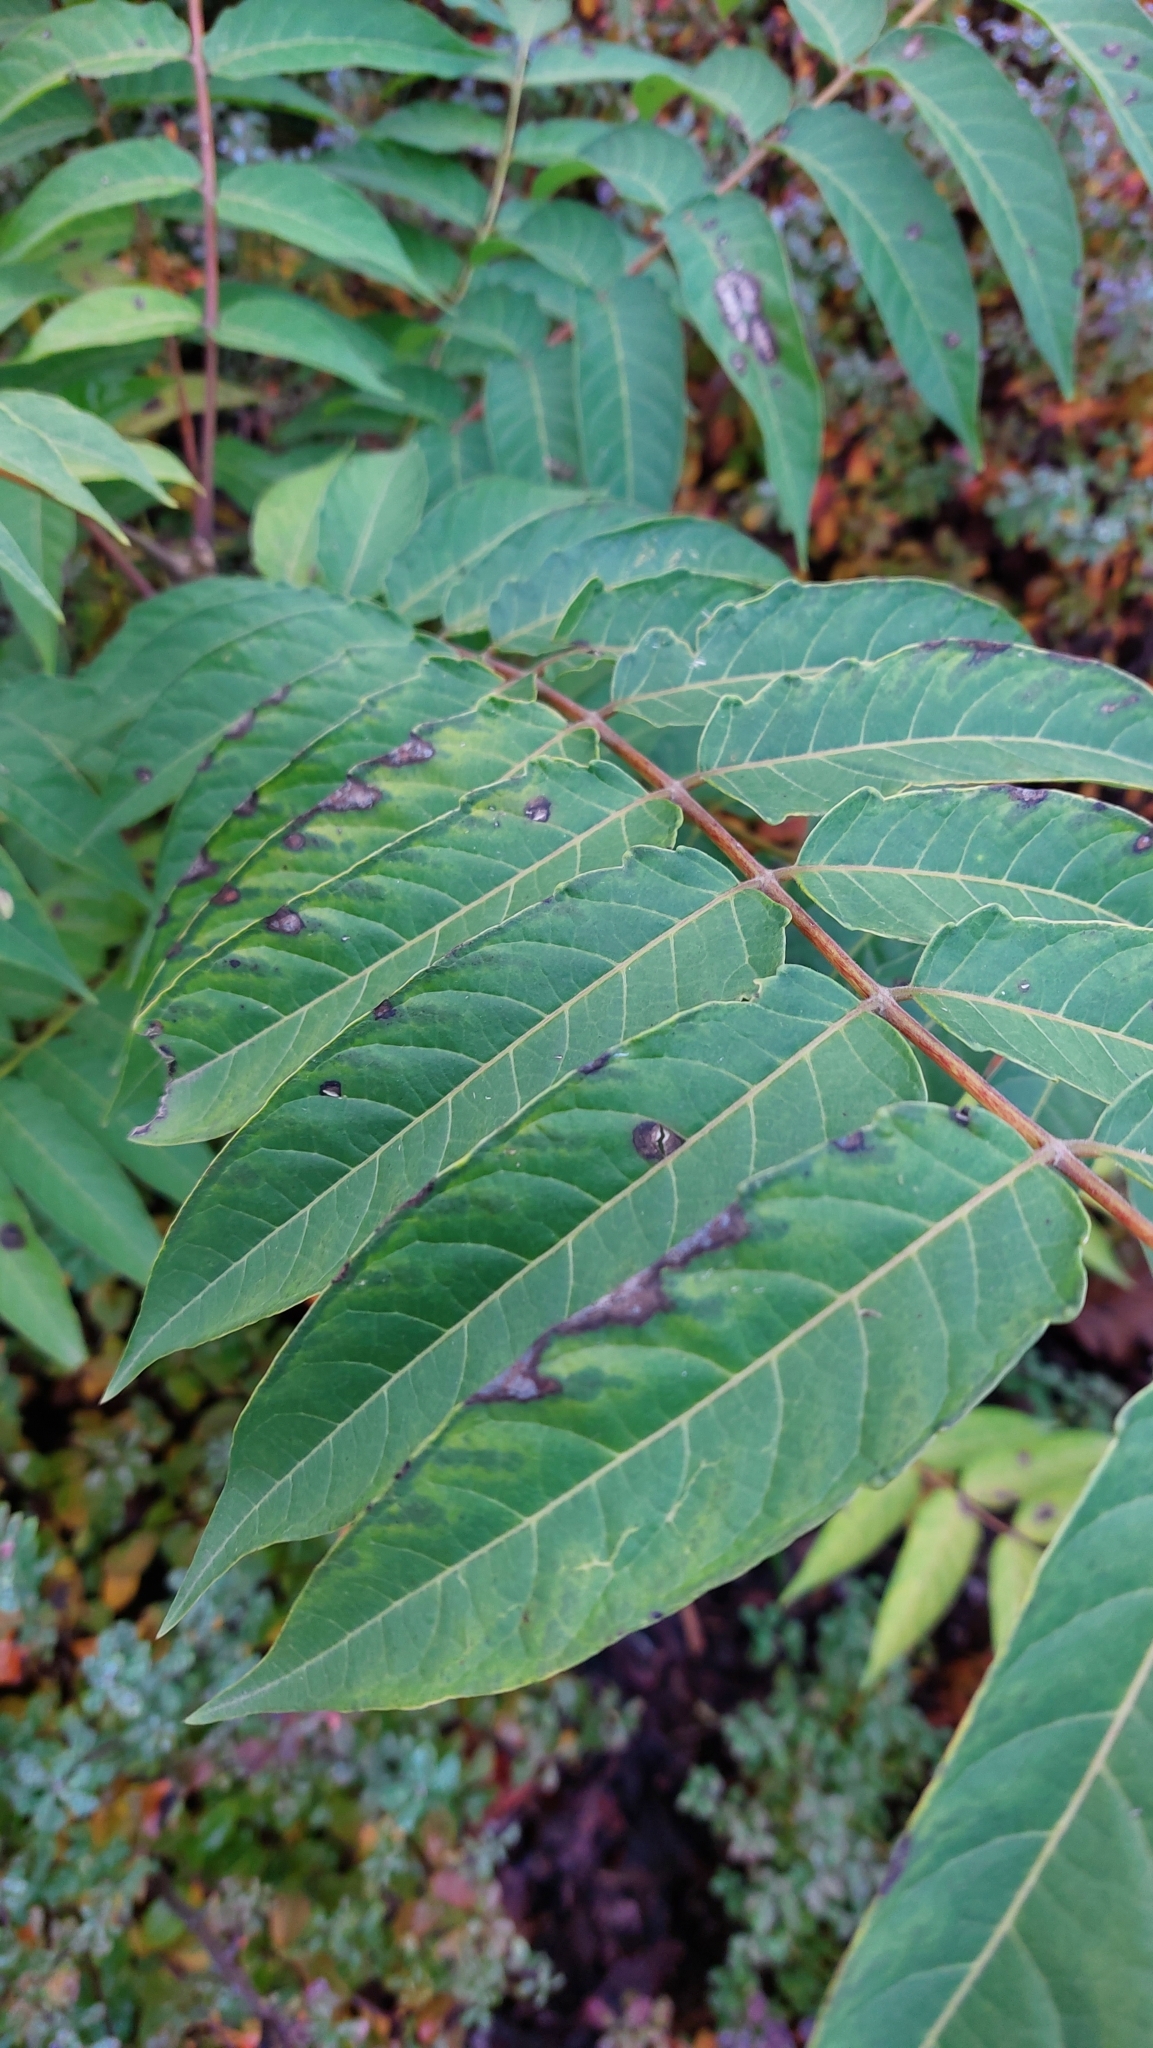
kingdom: Plantae
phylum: Tracheophyta
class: Magnoliopsida
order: Sapindales
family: Simaroubaceae
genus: Ailanthus
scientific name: Ailanthus altissima
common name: Tree-of-heaven
